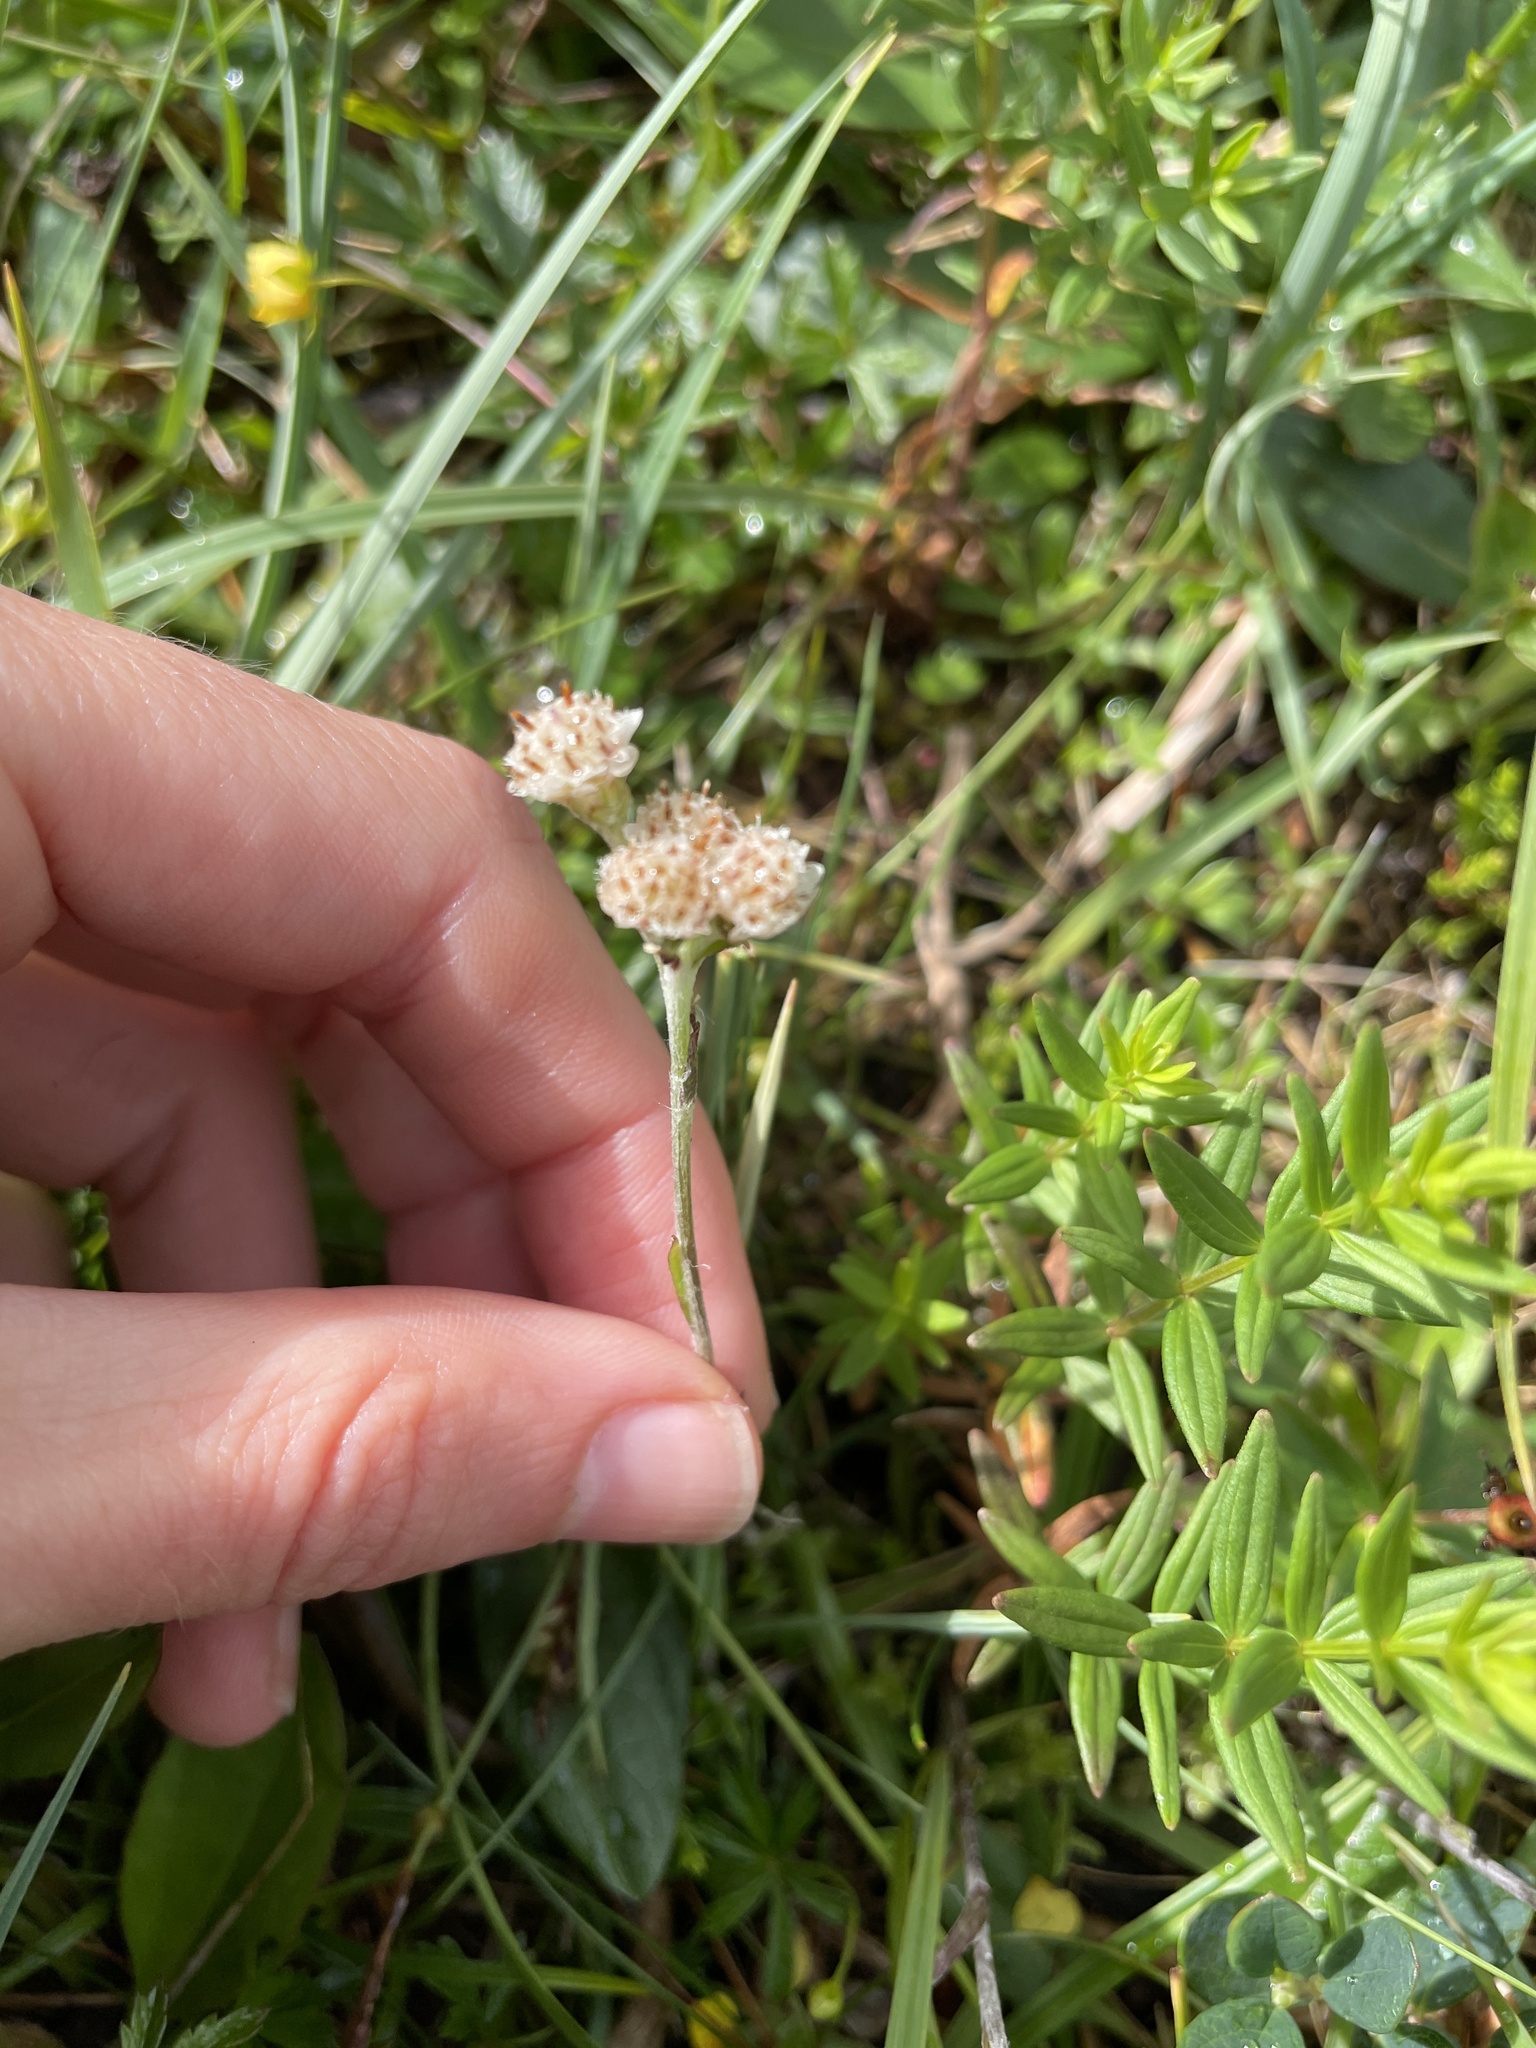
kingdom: Plantae
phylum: Tracheophyta
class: Magnoliopsida
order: Asterales
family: Asteraceae
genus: Antennaria
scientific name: Antennaria dioica
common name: Mountain everlasting
